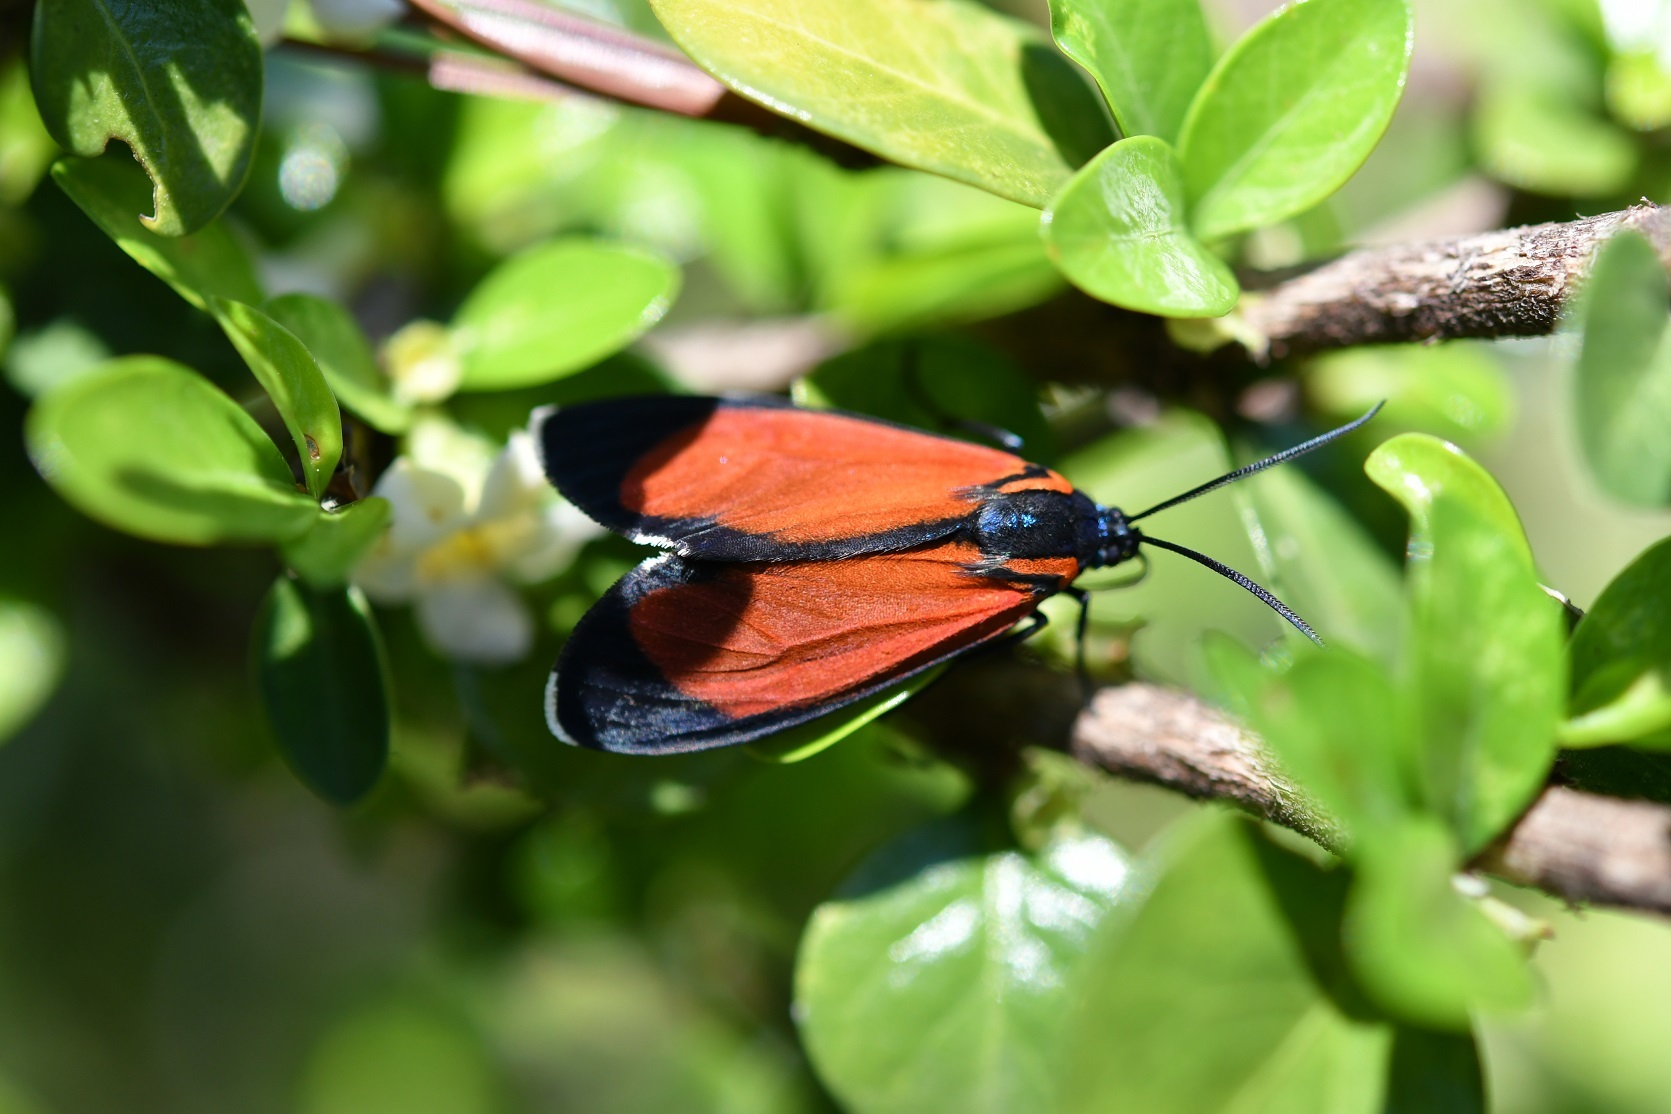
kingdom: Animalia
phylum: Arthropoda
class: Insecta
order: Lepidoptera
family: Erebidae
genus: Ctenucha
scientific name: Ctenucha schausi
